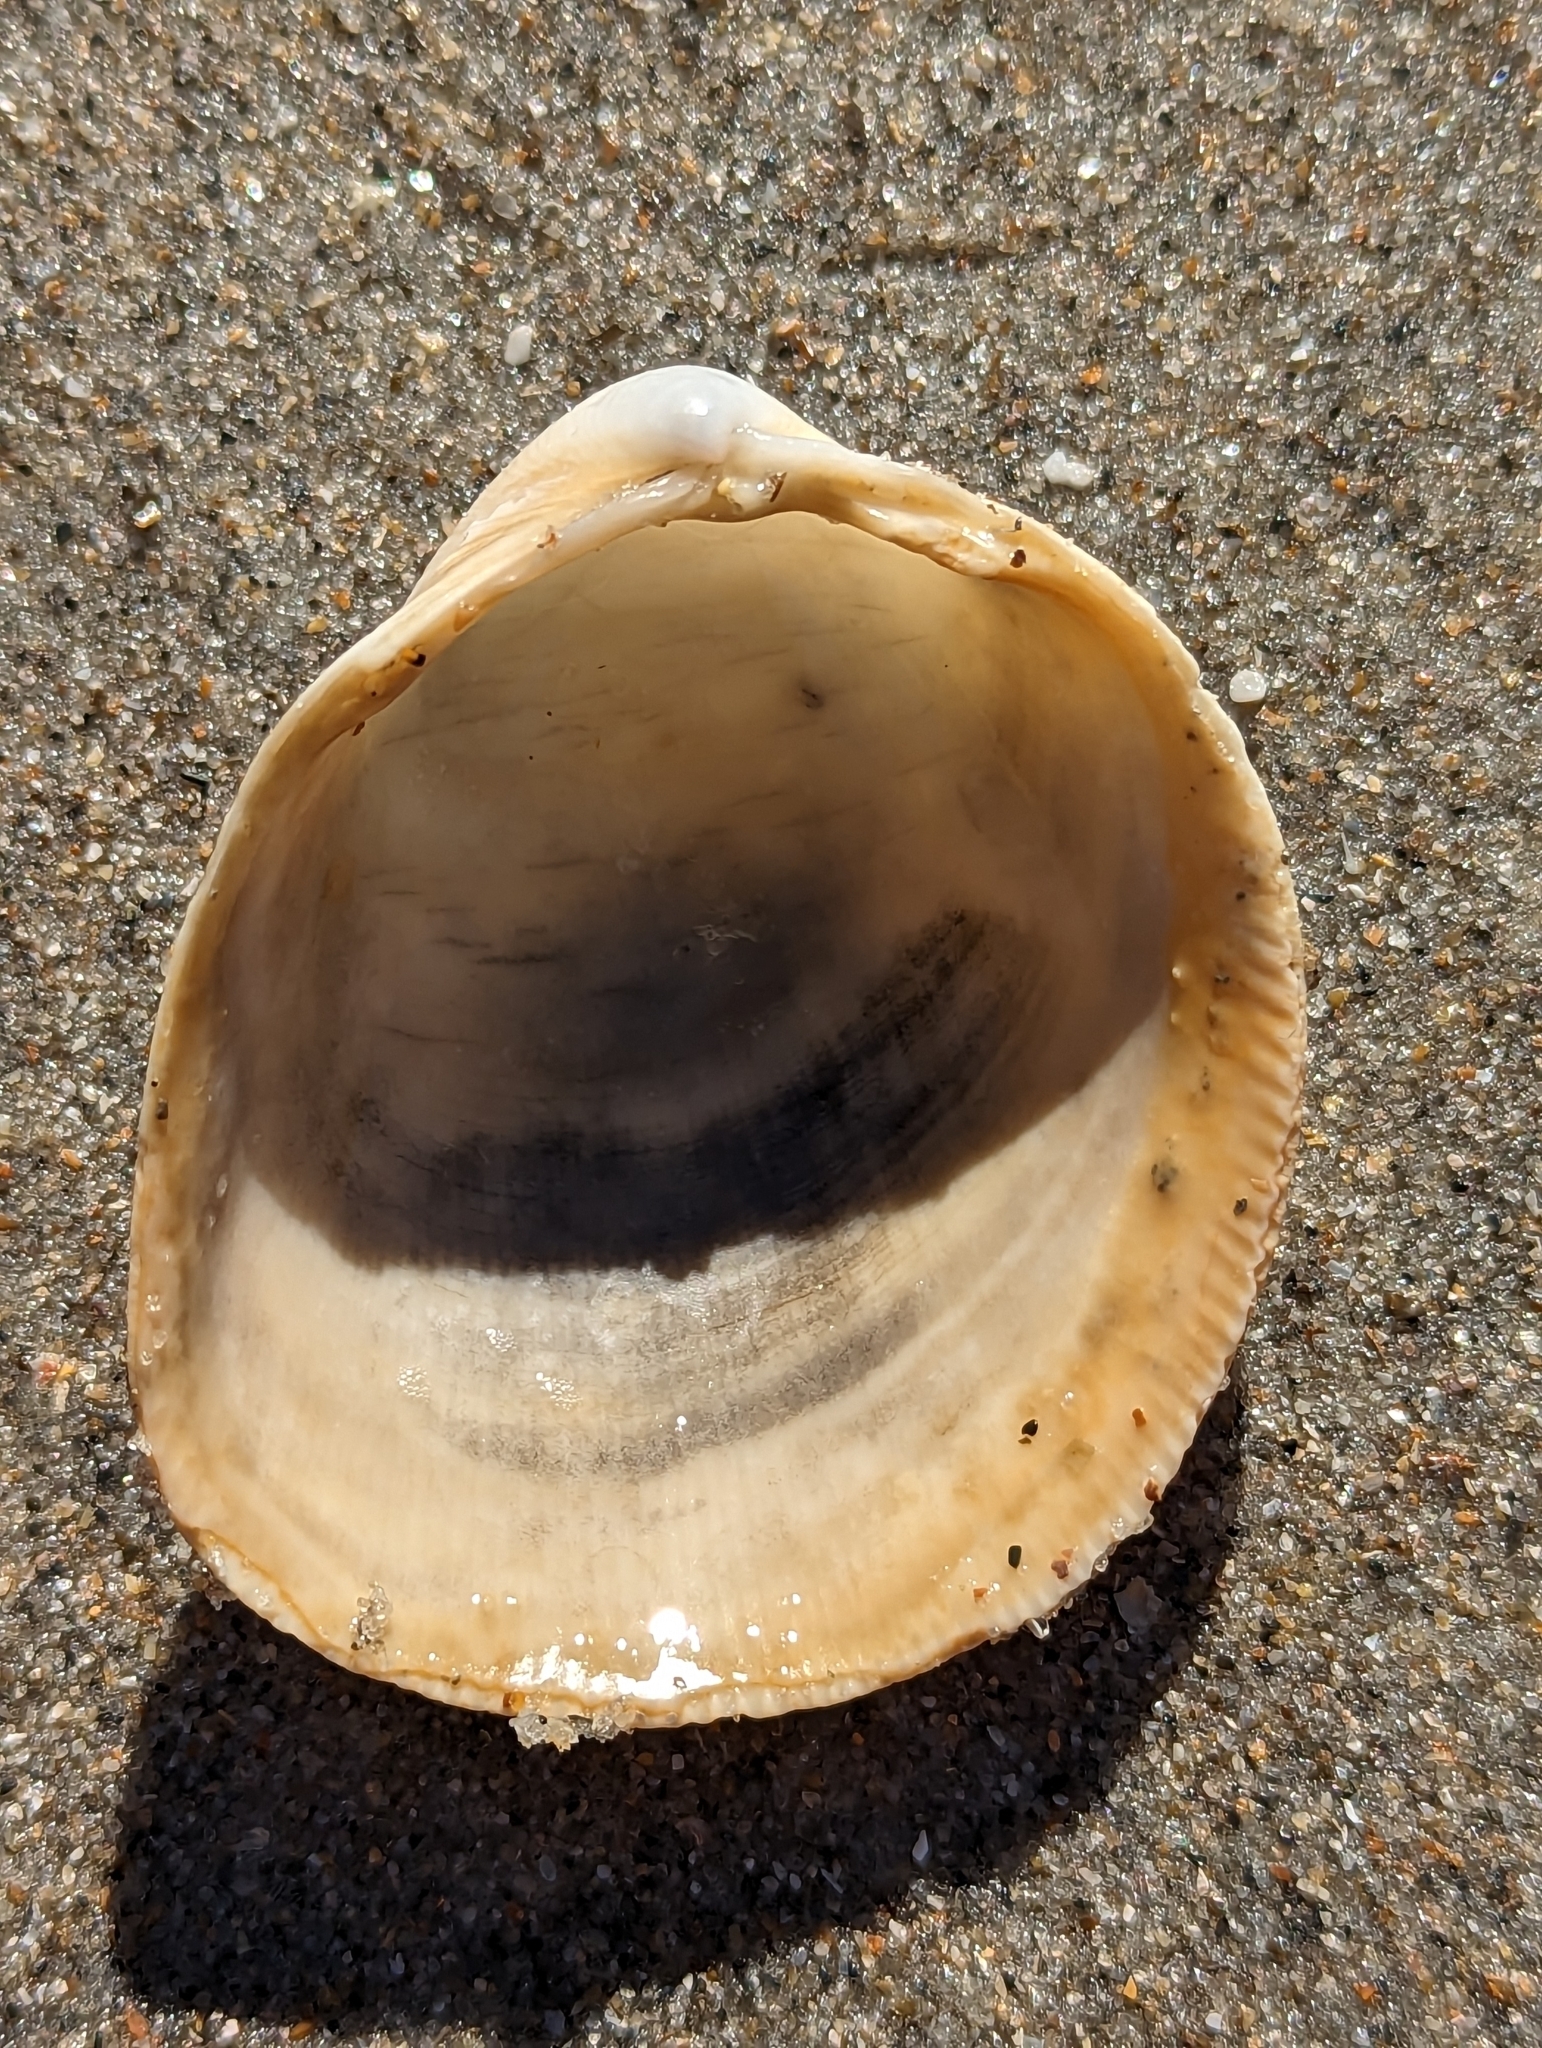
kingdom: Animalia
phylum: Mollusca
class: Bivalvia
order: Cardiida
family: Cardiidae
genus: Laevicardium
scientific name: Laevicardium serratum
